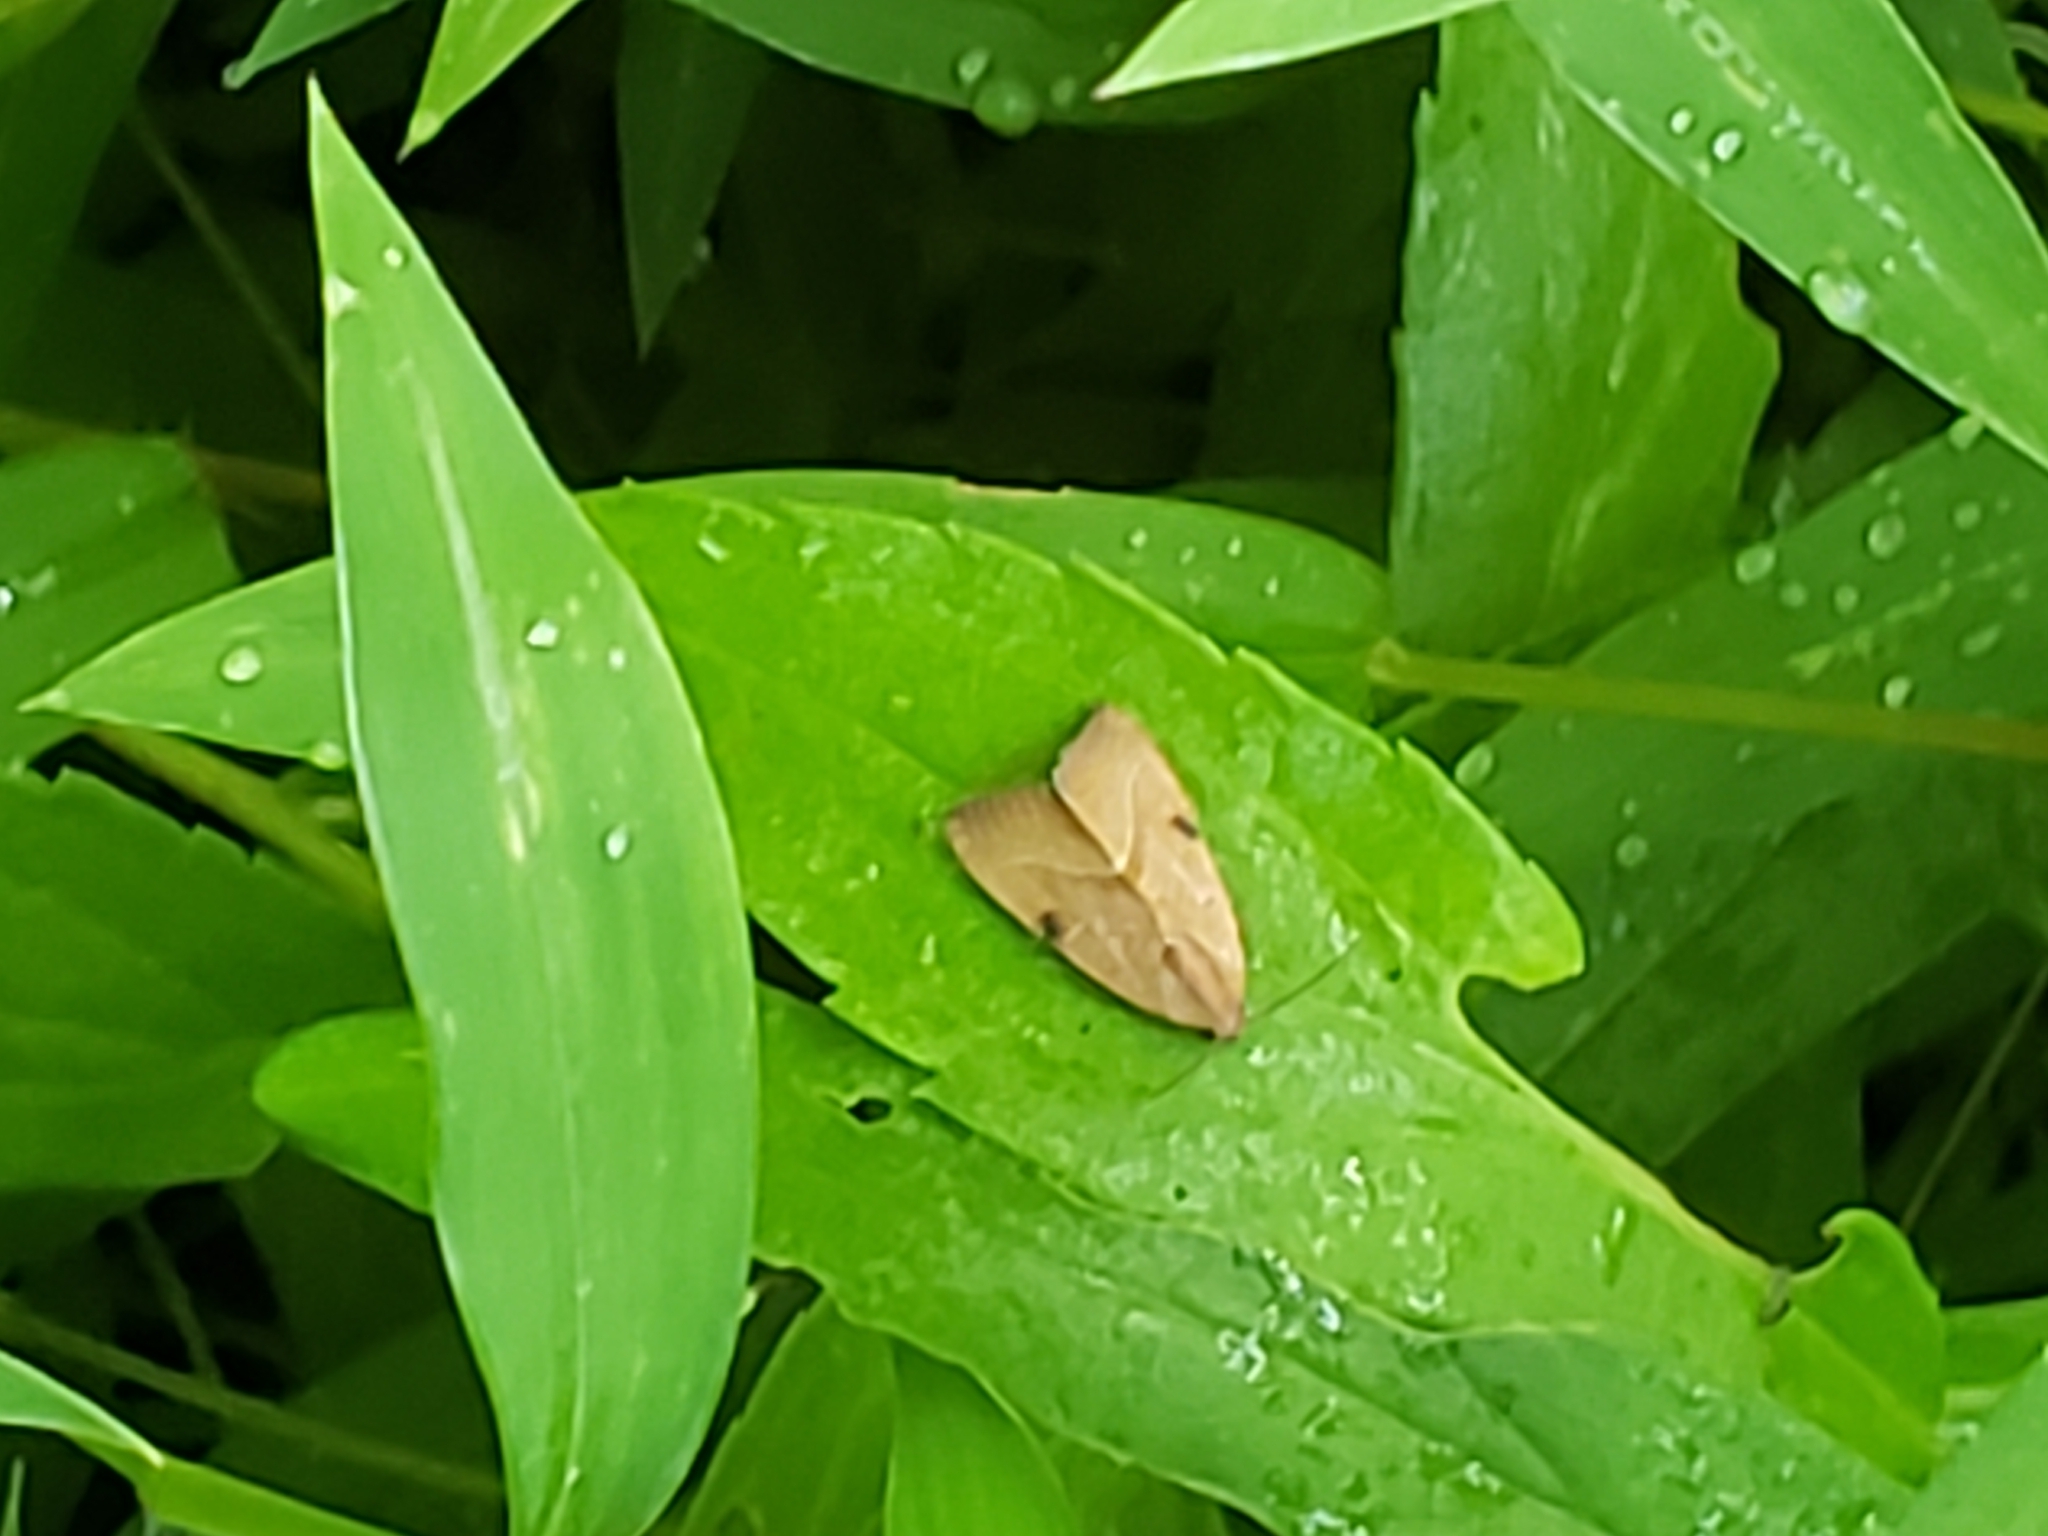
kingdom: Animalia
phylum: Arthropoda
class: Insecta
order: Lepidoptera
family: Noctuidae
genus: Galgula
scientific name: Galgula partita
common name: Wedgeling
